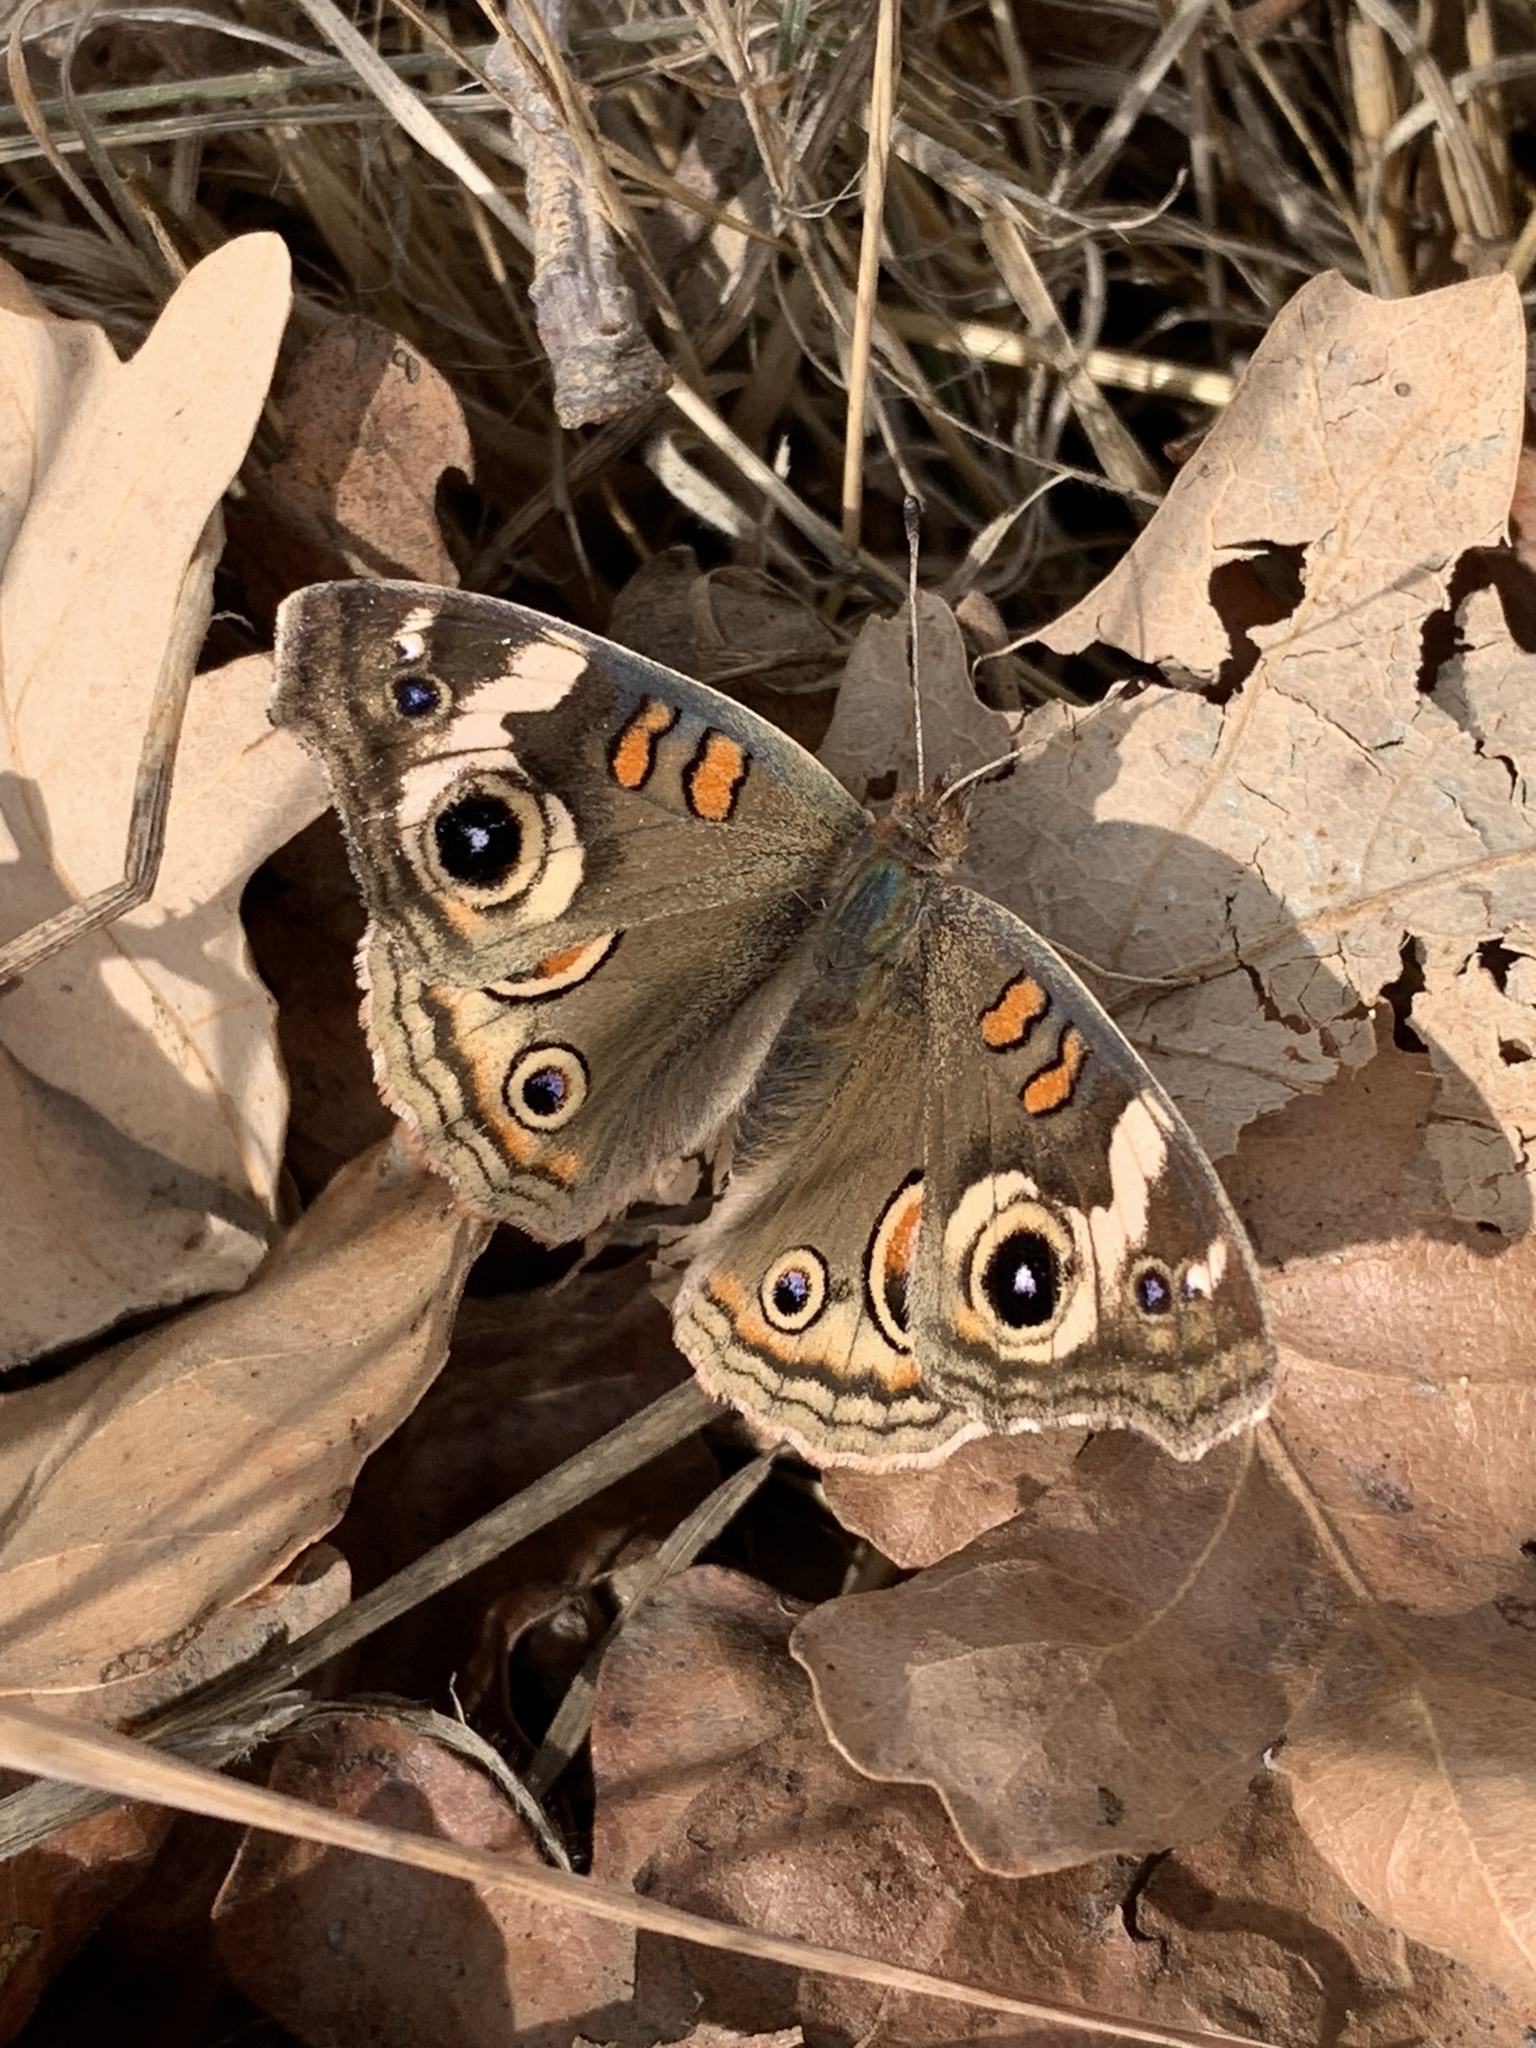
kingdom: Animalia
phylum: Arthropoda
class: Insecta
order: Lepidoptera
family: Nymphalidae
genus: Junonia
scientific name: Junonia grisea
